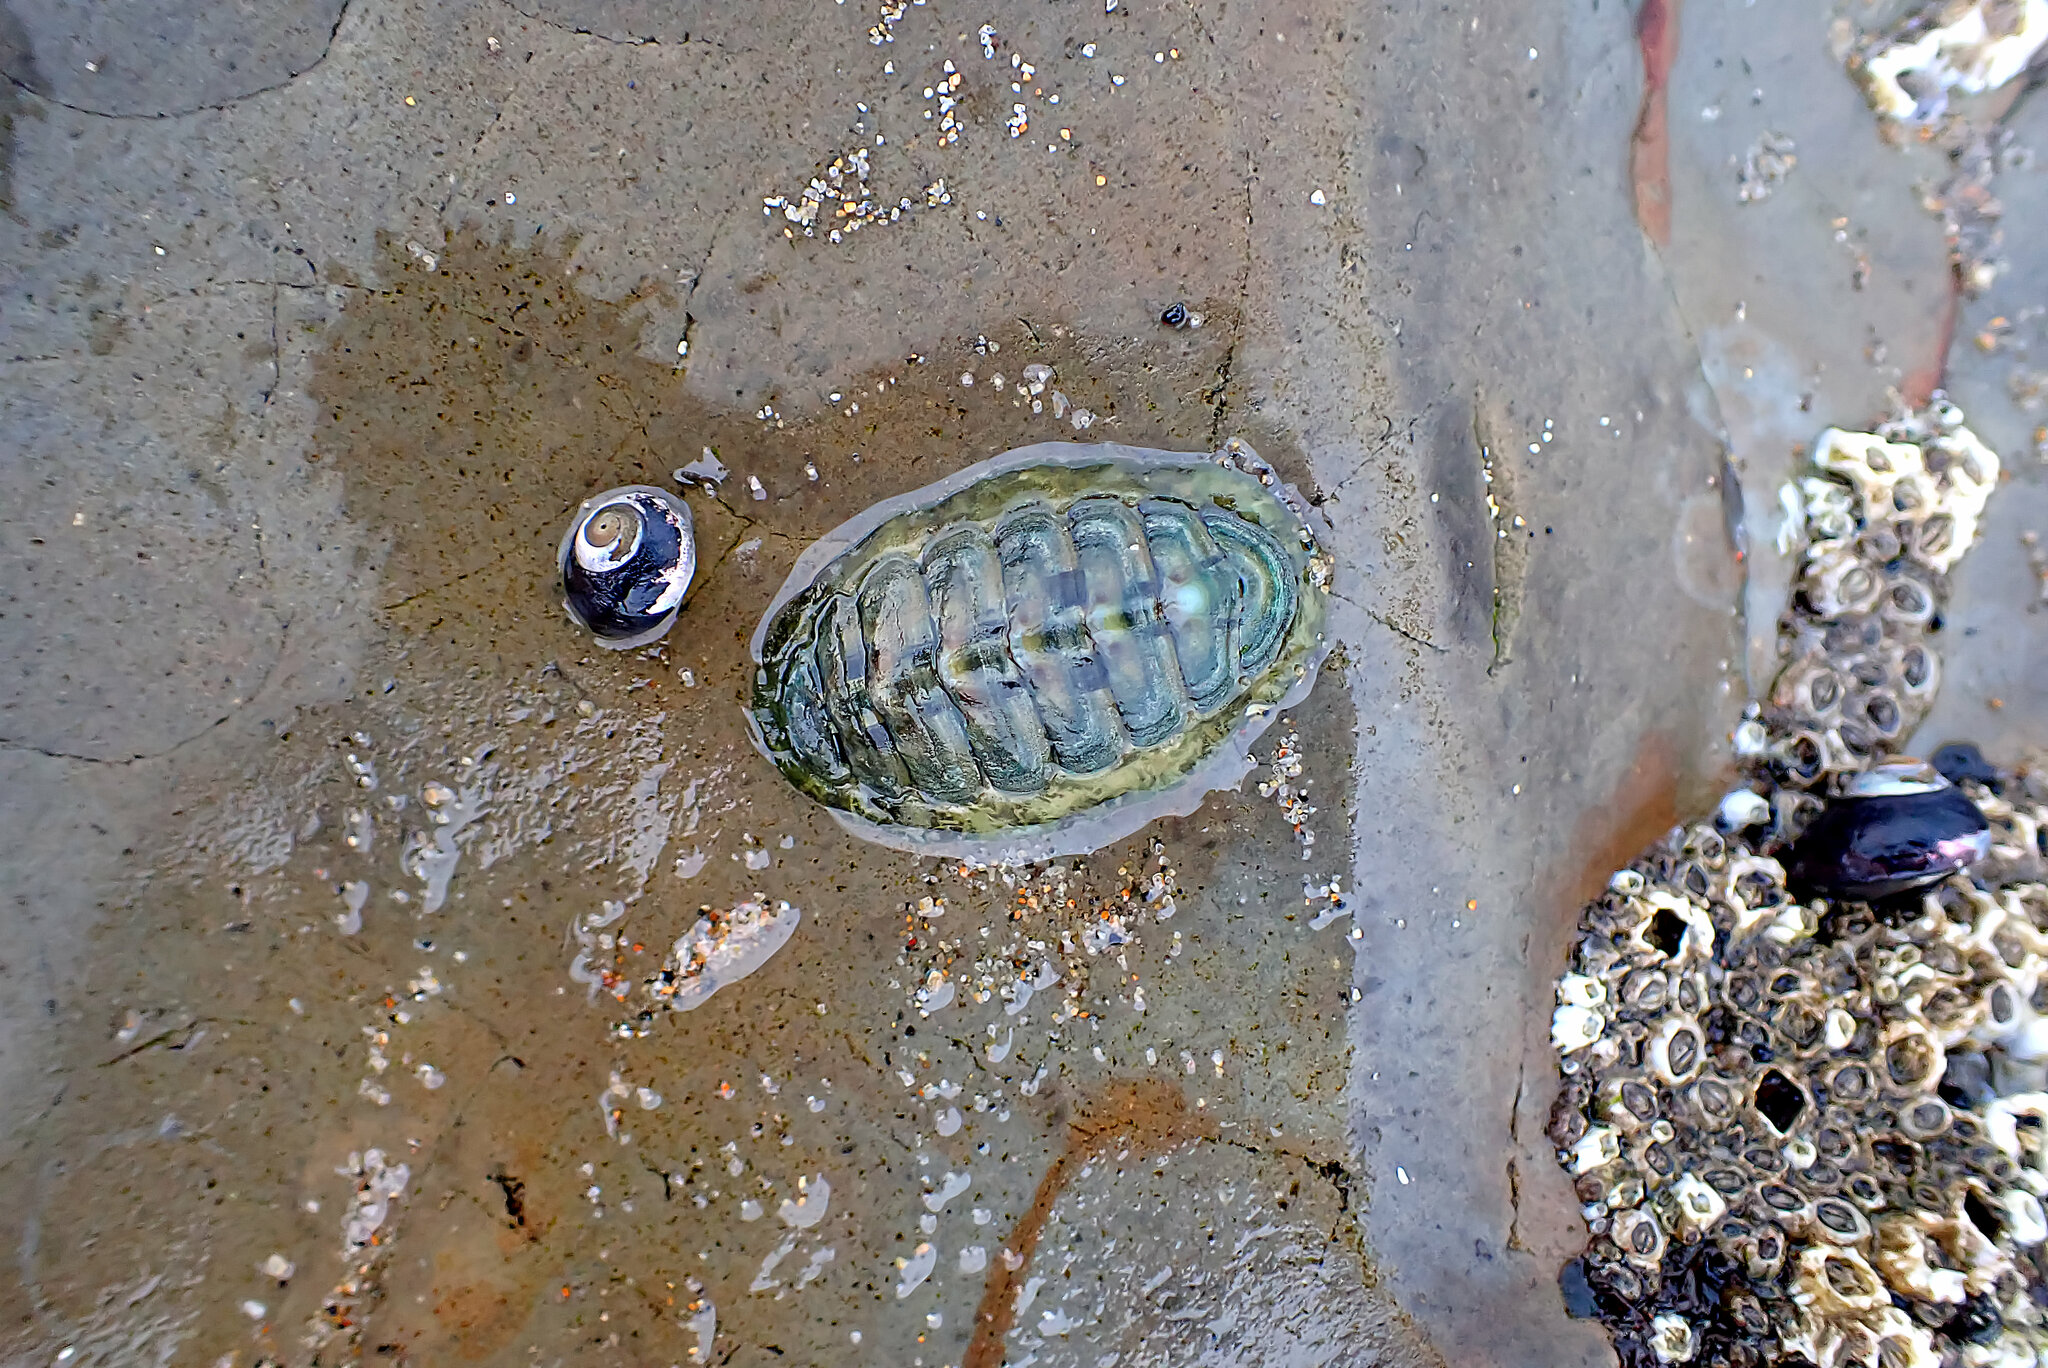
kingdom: Animalia
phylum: Mollusca
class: Polyplacophora
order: Chitonida
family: Tonicellidae
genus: Cyanoplax
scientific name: Cyanoplax hartwegii
